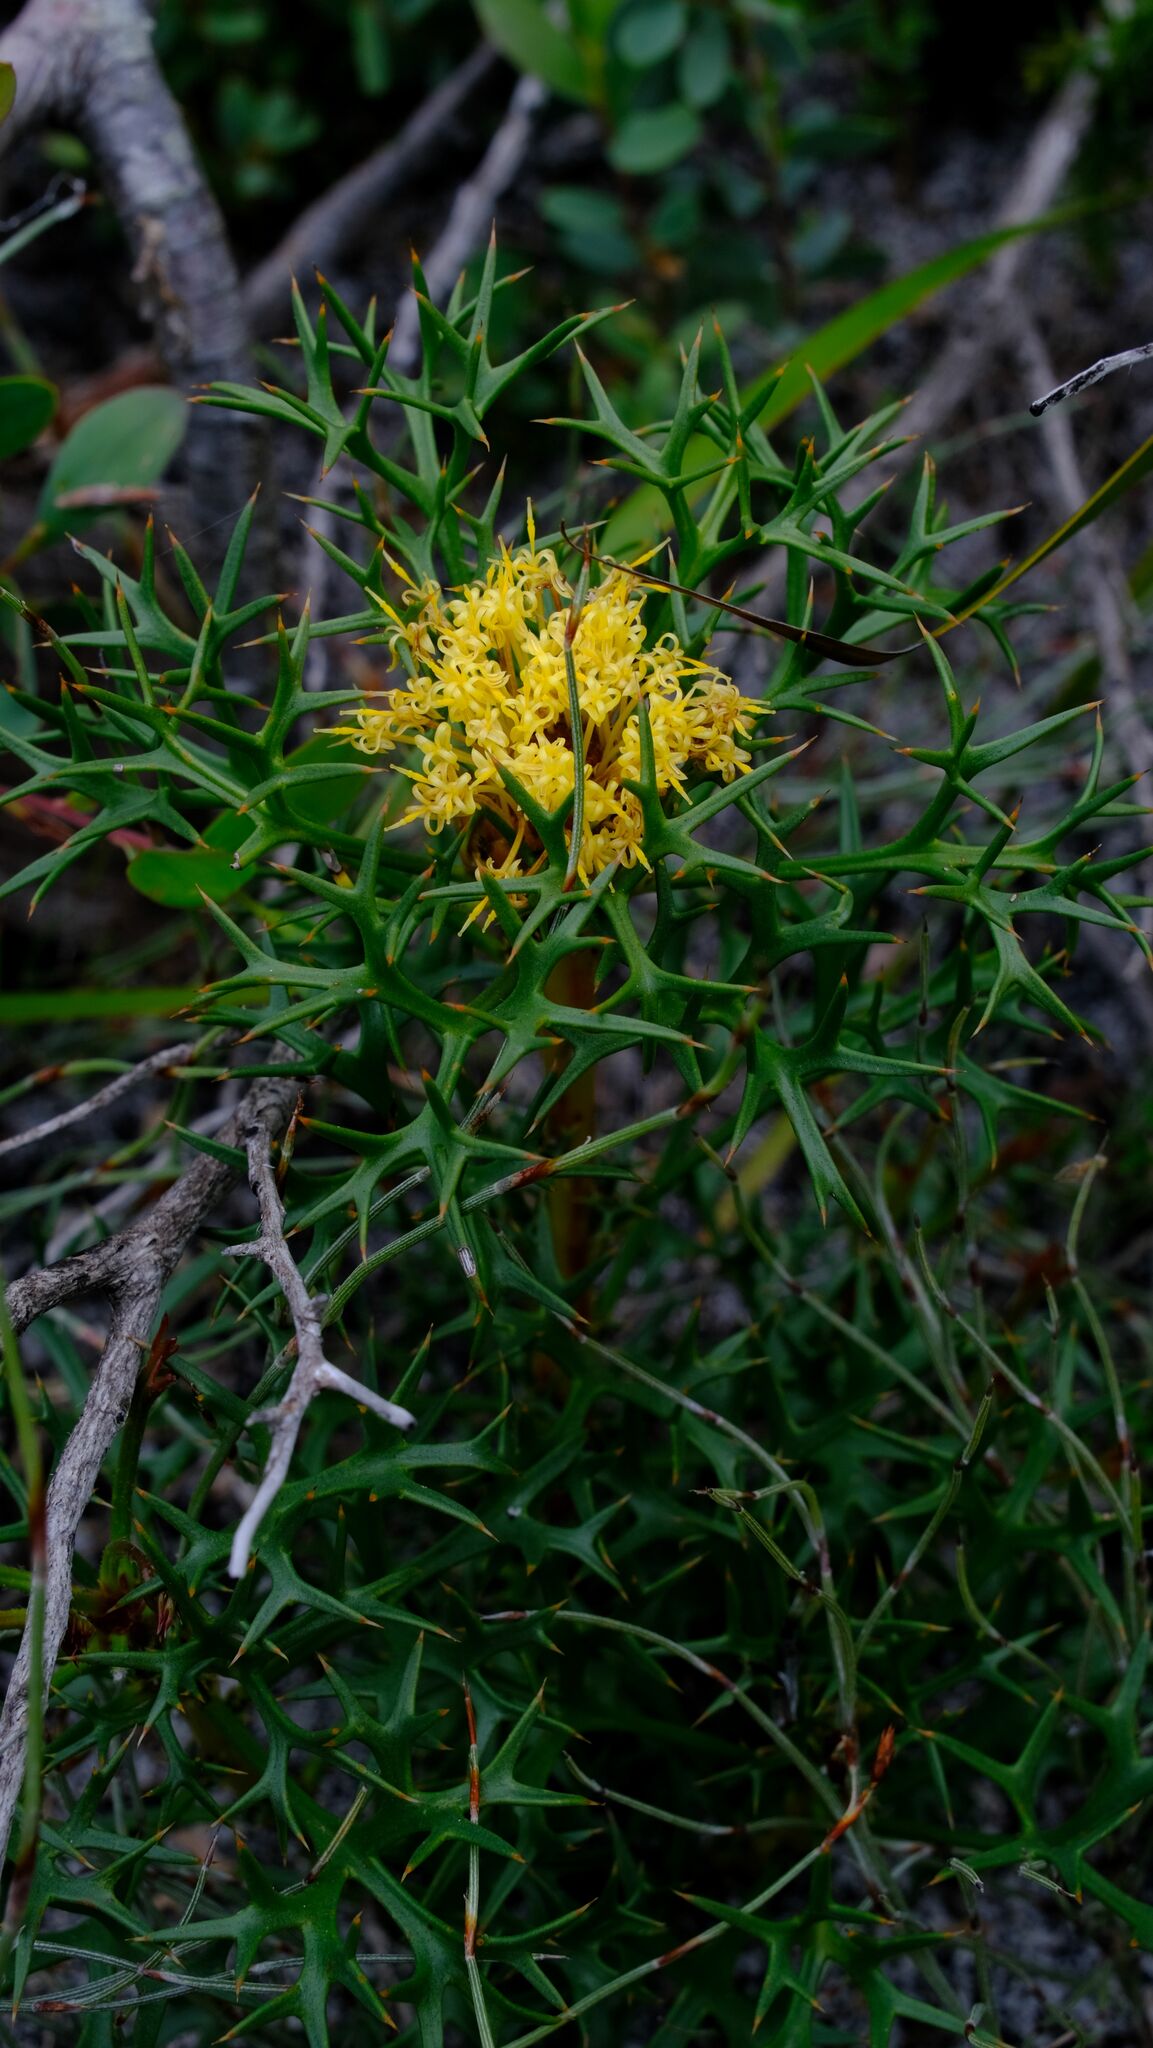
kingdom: Plantae
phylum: Tracheophyta
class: Magnoliopsida
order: Proteales
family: Proteaceae
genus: Isopogon
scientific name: Isopogon ceratophyllus
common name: Horny cone-bush
